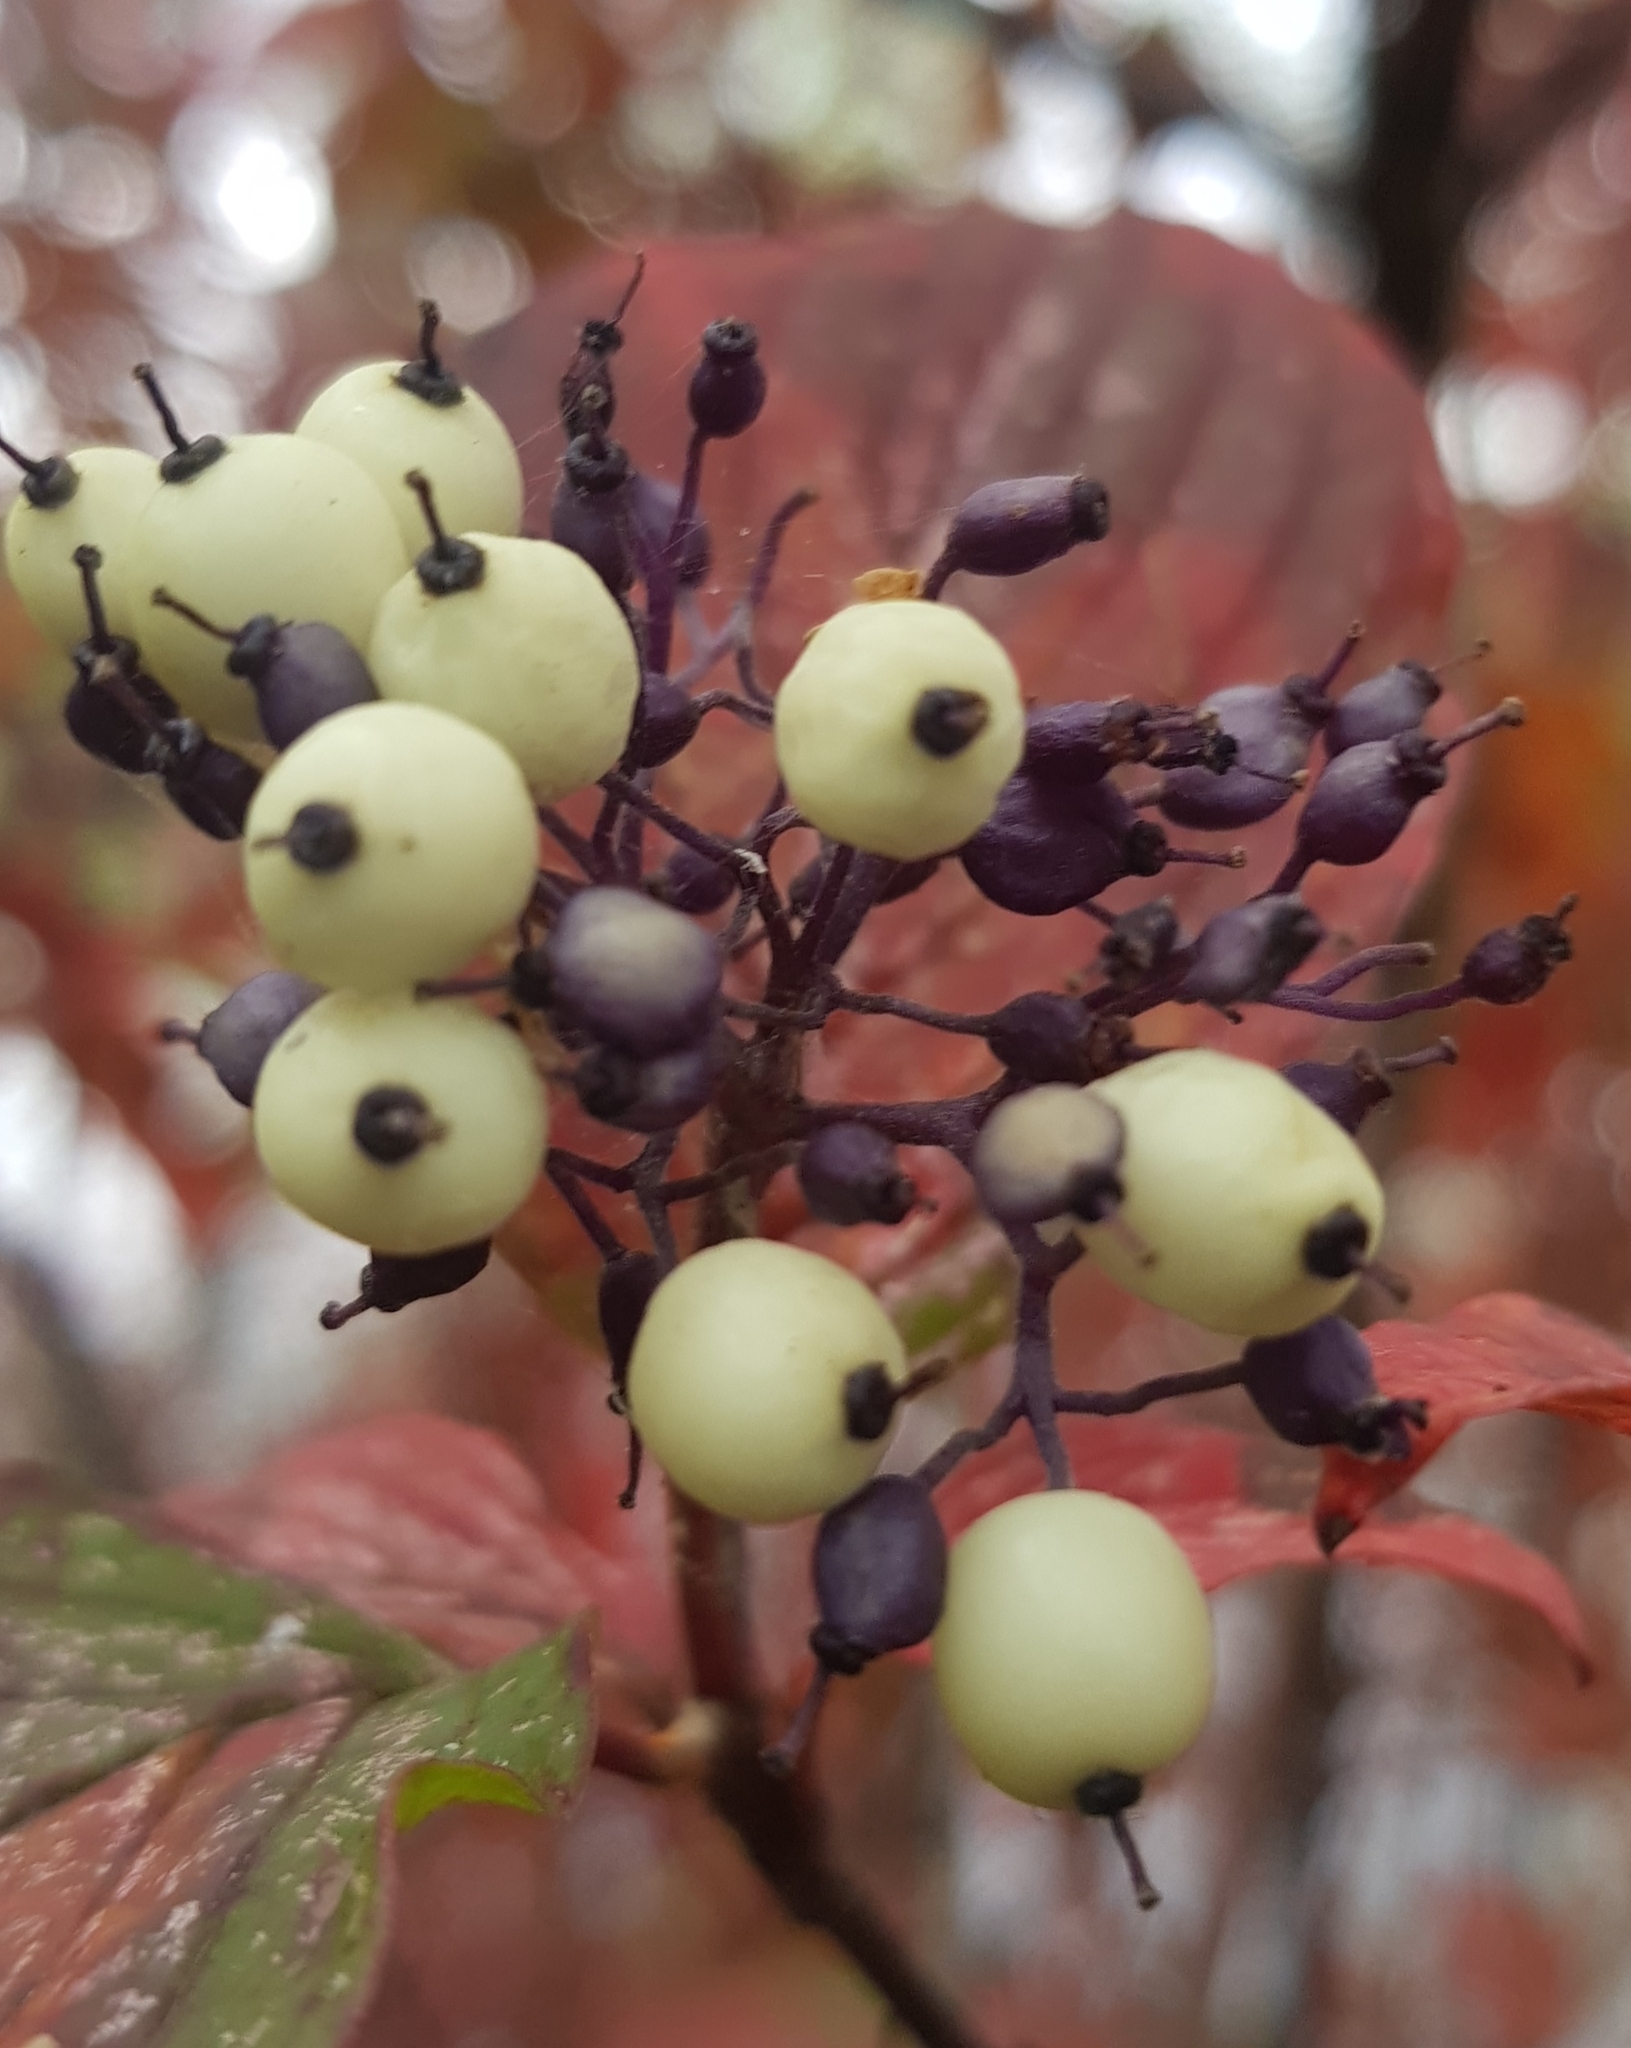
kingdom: Plantae
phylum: Tracheophyta
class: Magnoliopsida
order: Cornales
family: Cornaceae
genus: Cornus
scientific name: Cornus alba
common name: White dogwood
